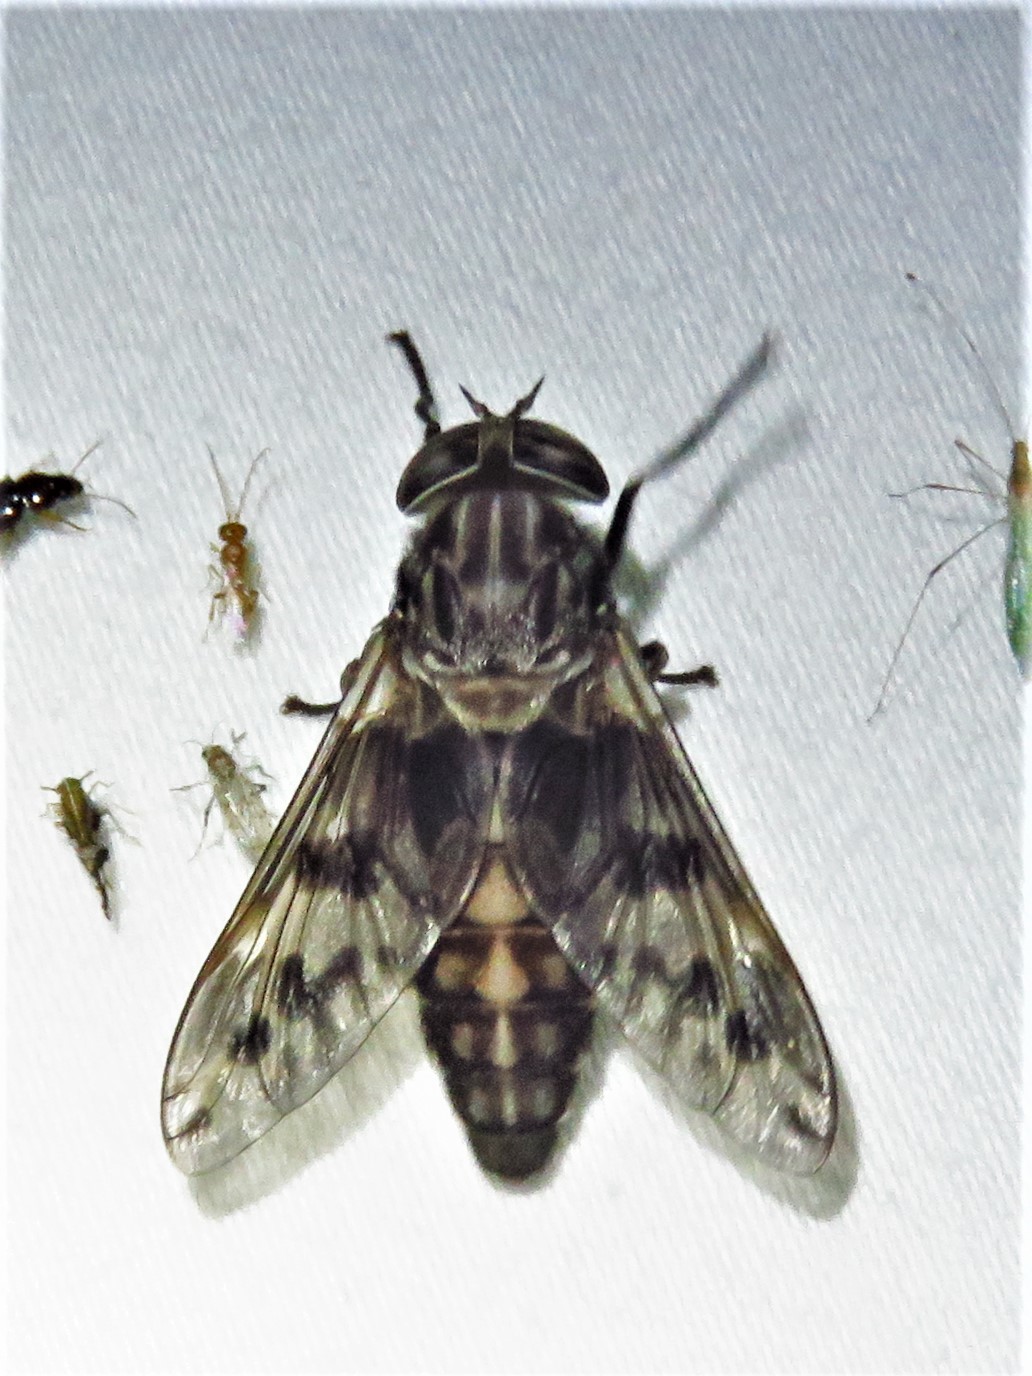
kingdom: Animalia
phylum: Arthropoda
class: Insecta
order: Diptera
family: Tabanidae
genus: Tabanus
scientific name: Tabanus venustus
